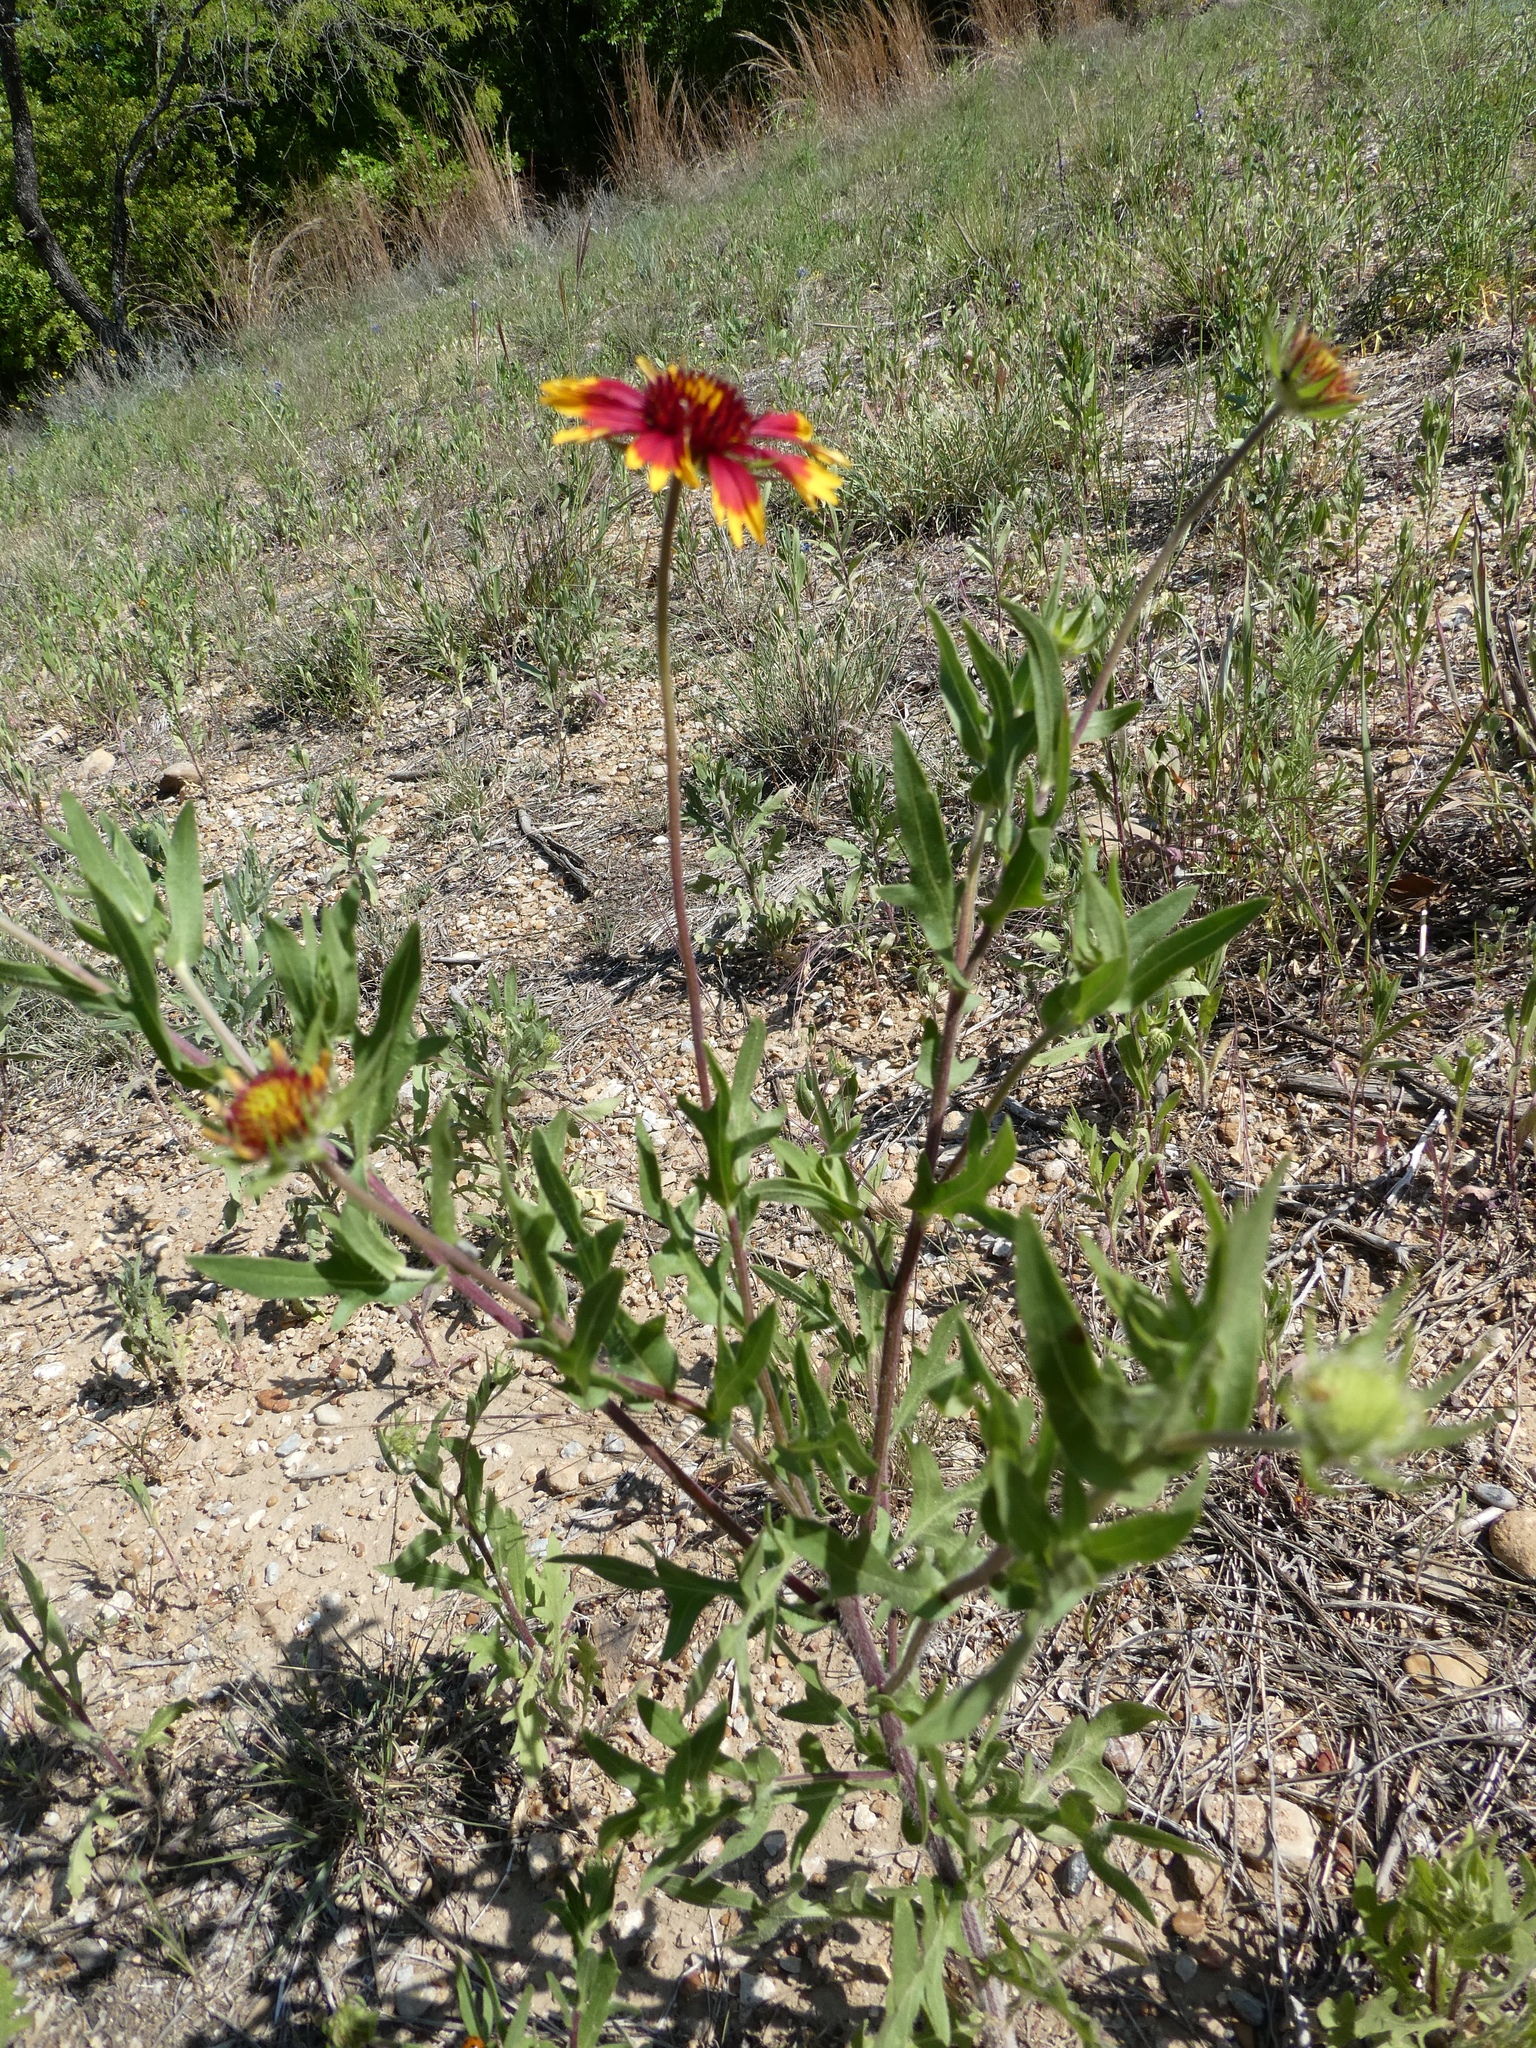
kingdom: Plantae
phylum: Tracheophyta
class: Magnoliopsida
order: Asterales
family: Asteraceae
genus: Gaillardia
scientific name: Gaillardia pulchella
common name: Firewheel
